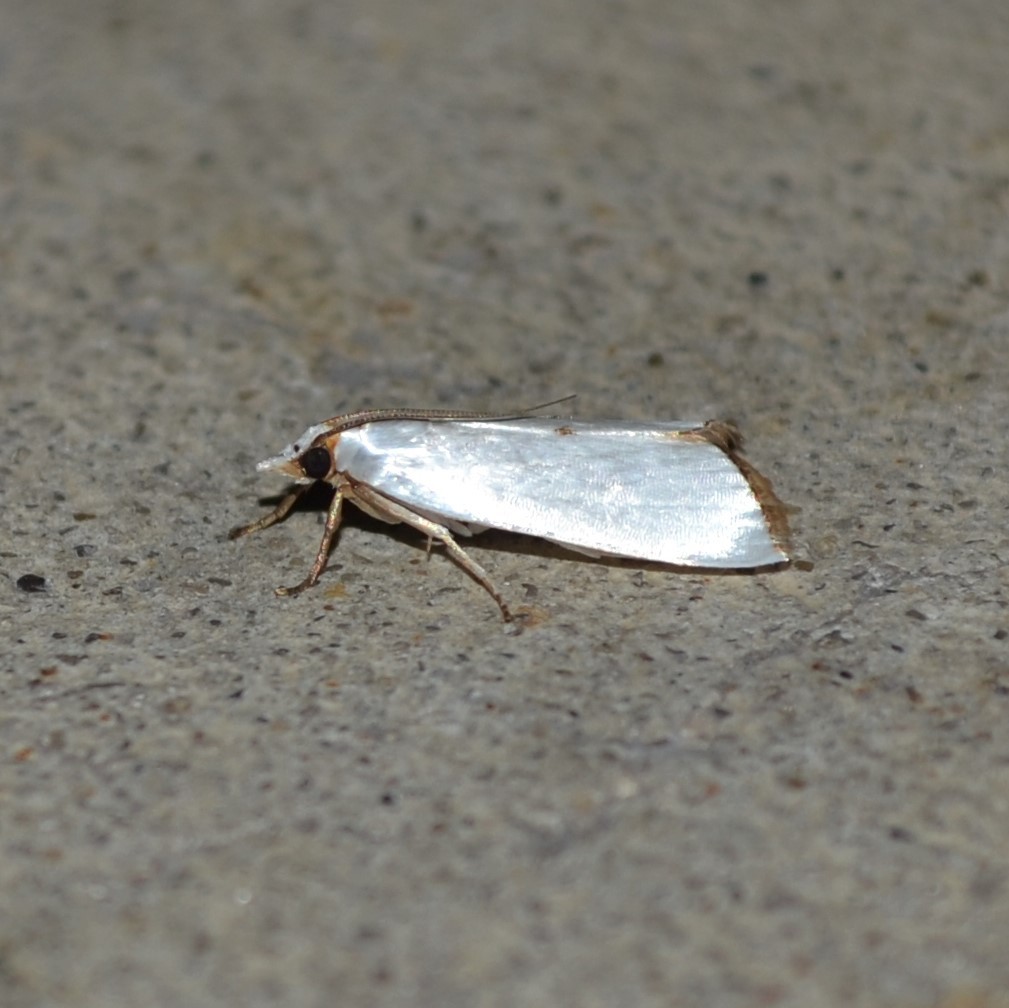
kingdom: Animalia
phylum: Arthropoda
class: Insecta
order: Lepidoptera
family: Crambidae
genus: Argyria
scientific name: Argyria nivalis
